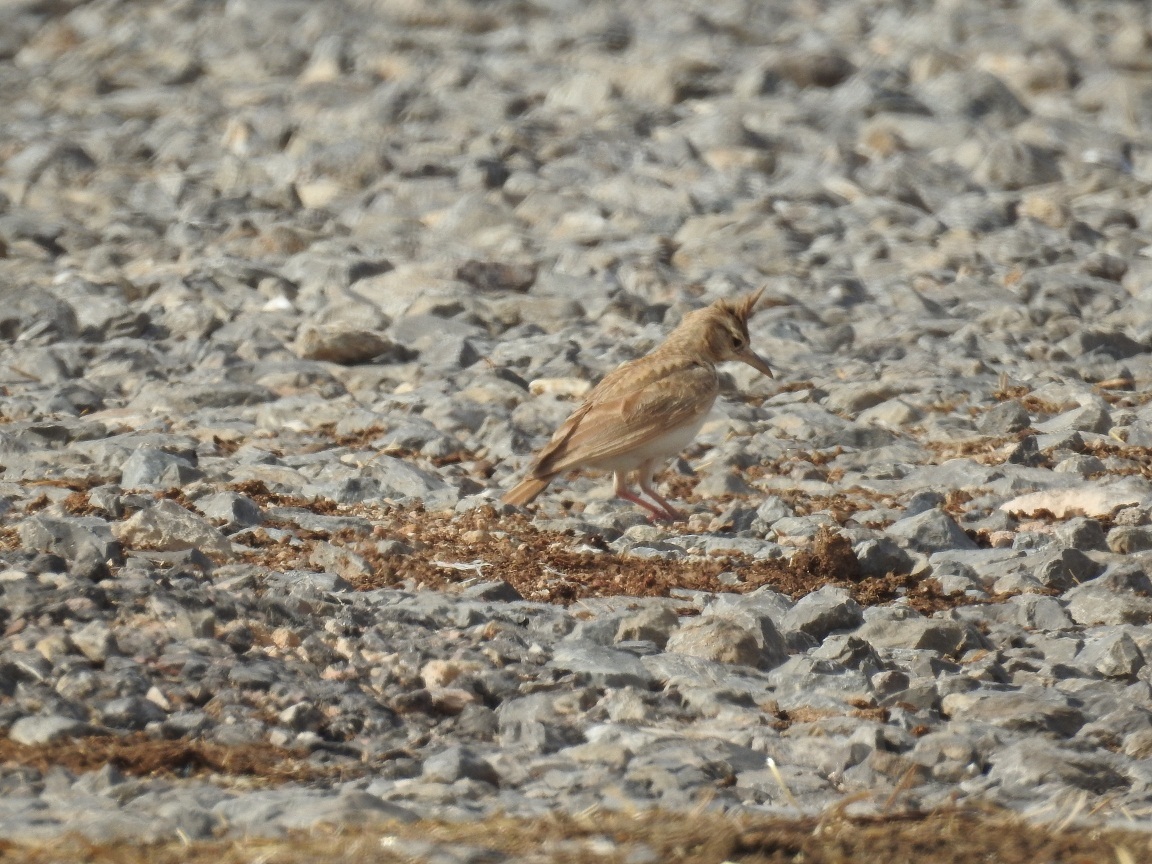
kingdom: Animalia
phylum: Chordata
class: Aves
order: Passeriformes
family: Alaudidae
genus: Galerida
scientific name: Galerida cristata
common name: Crested lark
